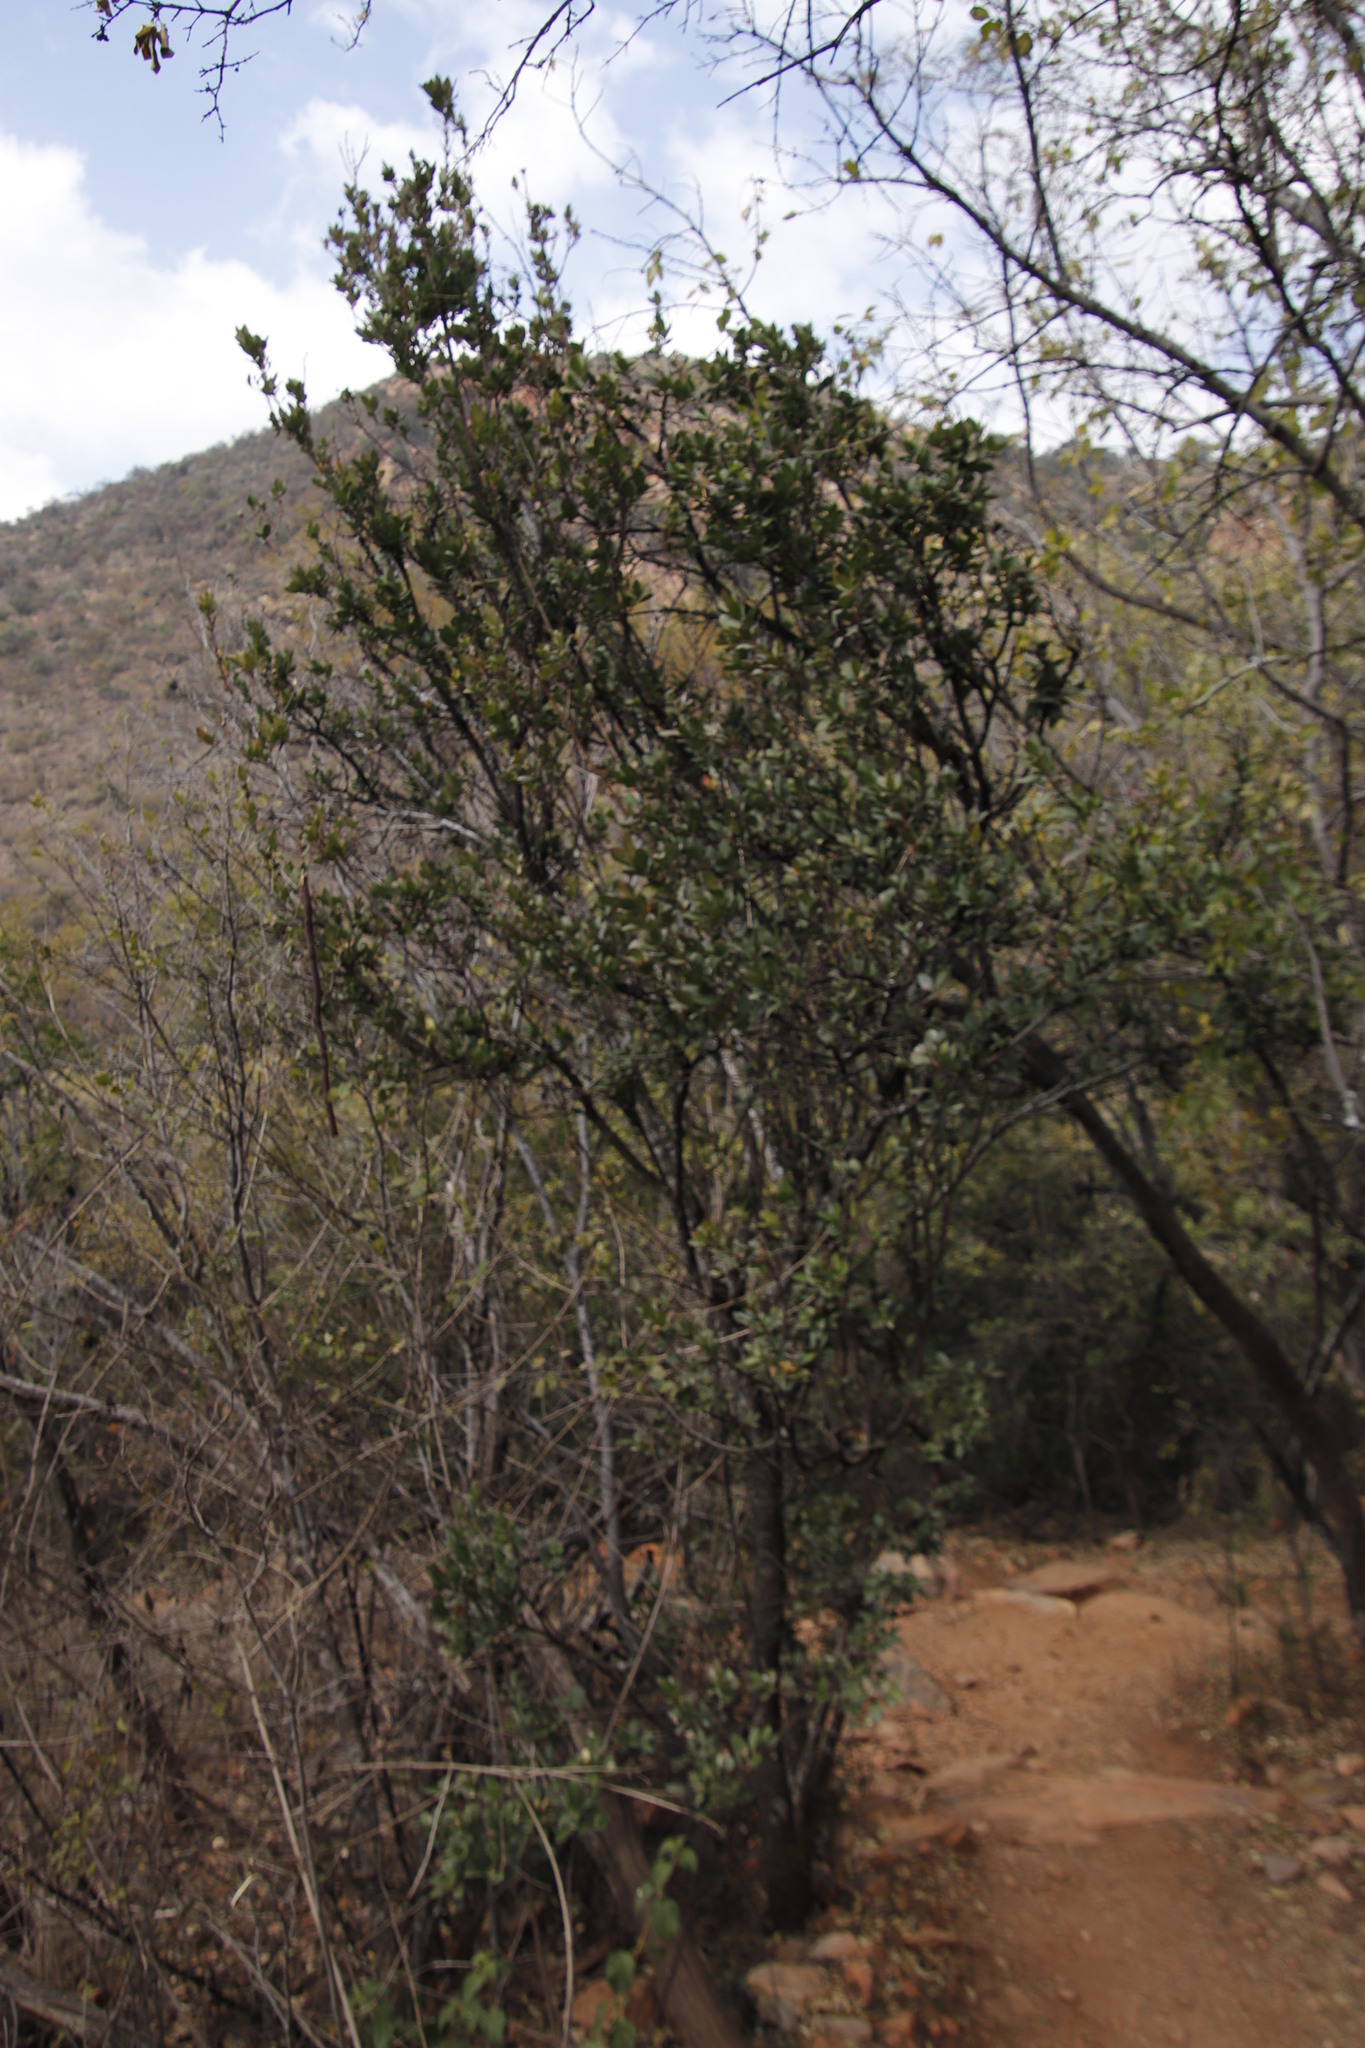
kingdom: Plantae
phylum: Tracheophyta
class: Magnoliopsida
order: Gentianales
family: Apocynaceae
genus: Acokanthera
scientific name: Acokanthera oppositifolia
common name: Bushman's-poison
